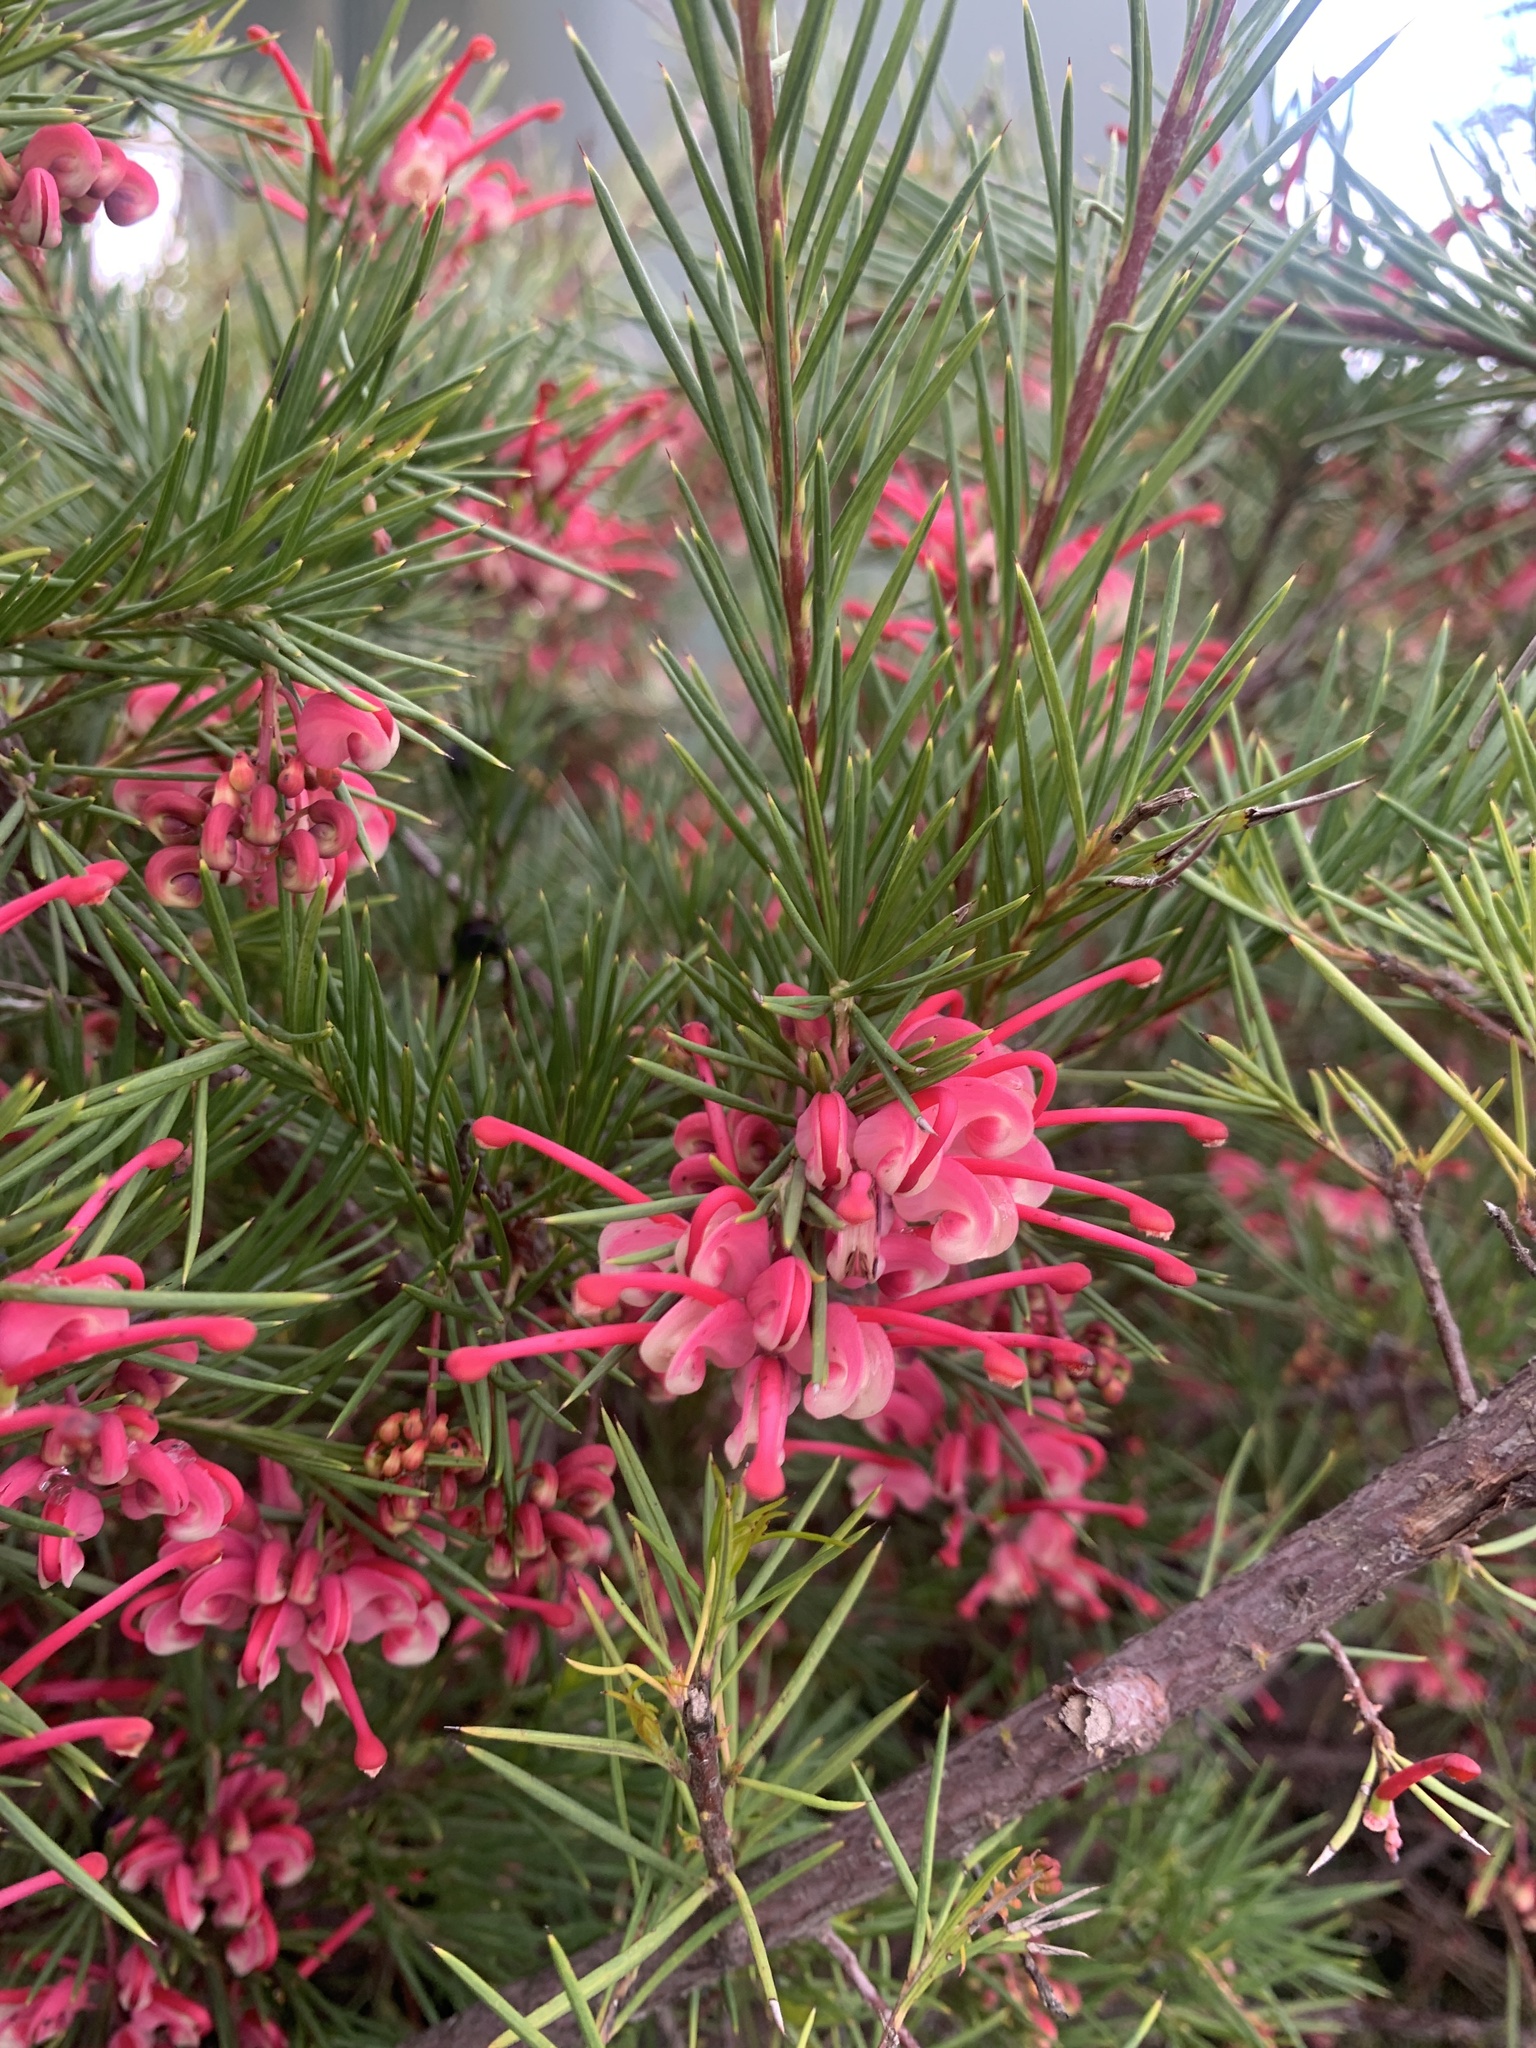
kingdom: Plantae
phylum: Tracheophyta
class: Magnoliopsida
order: Proteales
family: Proteaceae
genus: Grevillea
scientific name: Grevillea rosmarinifolia
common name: Rosemary grevillea
